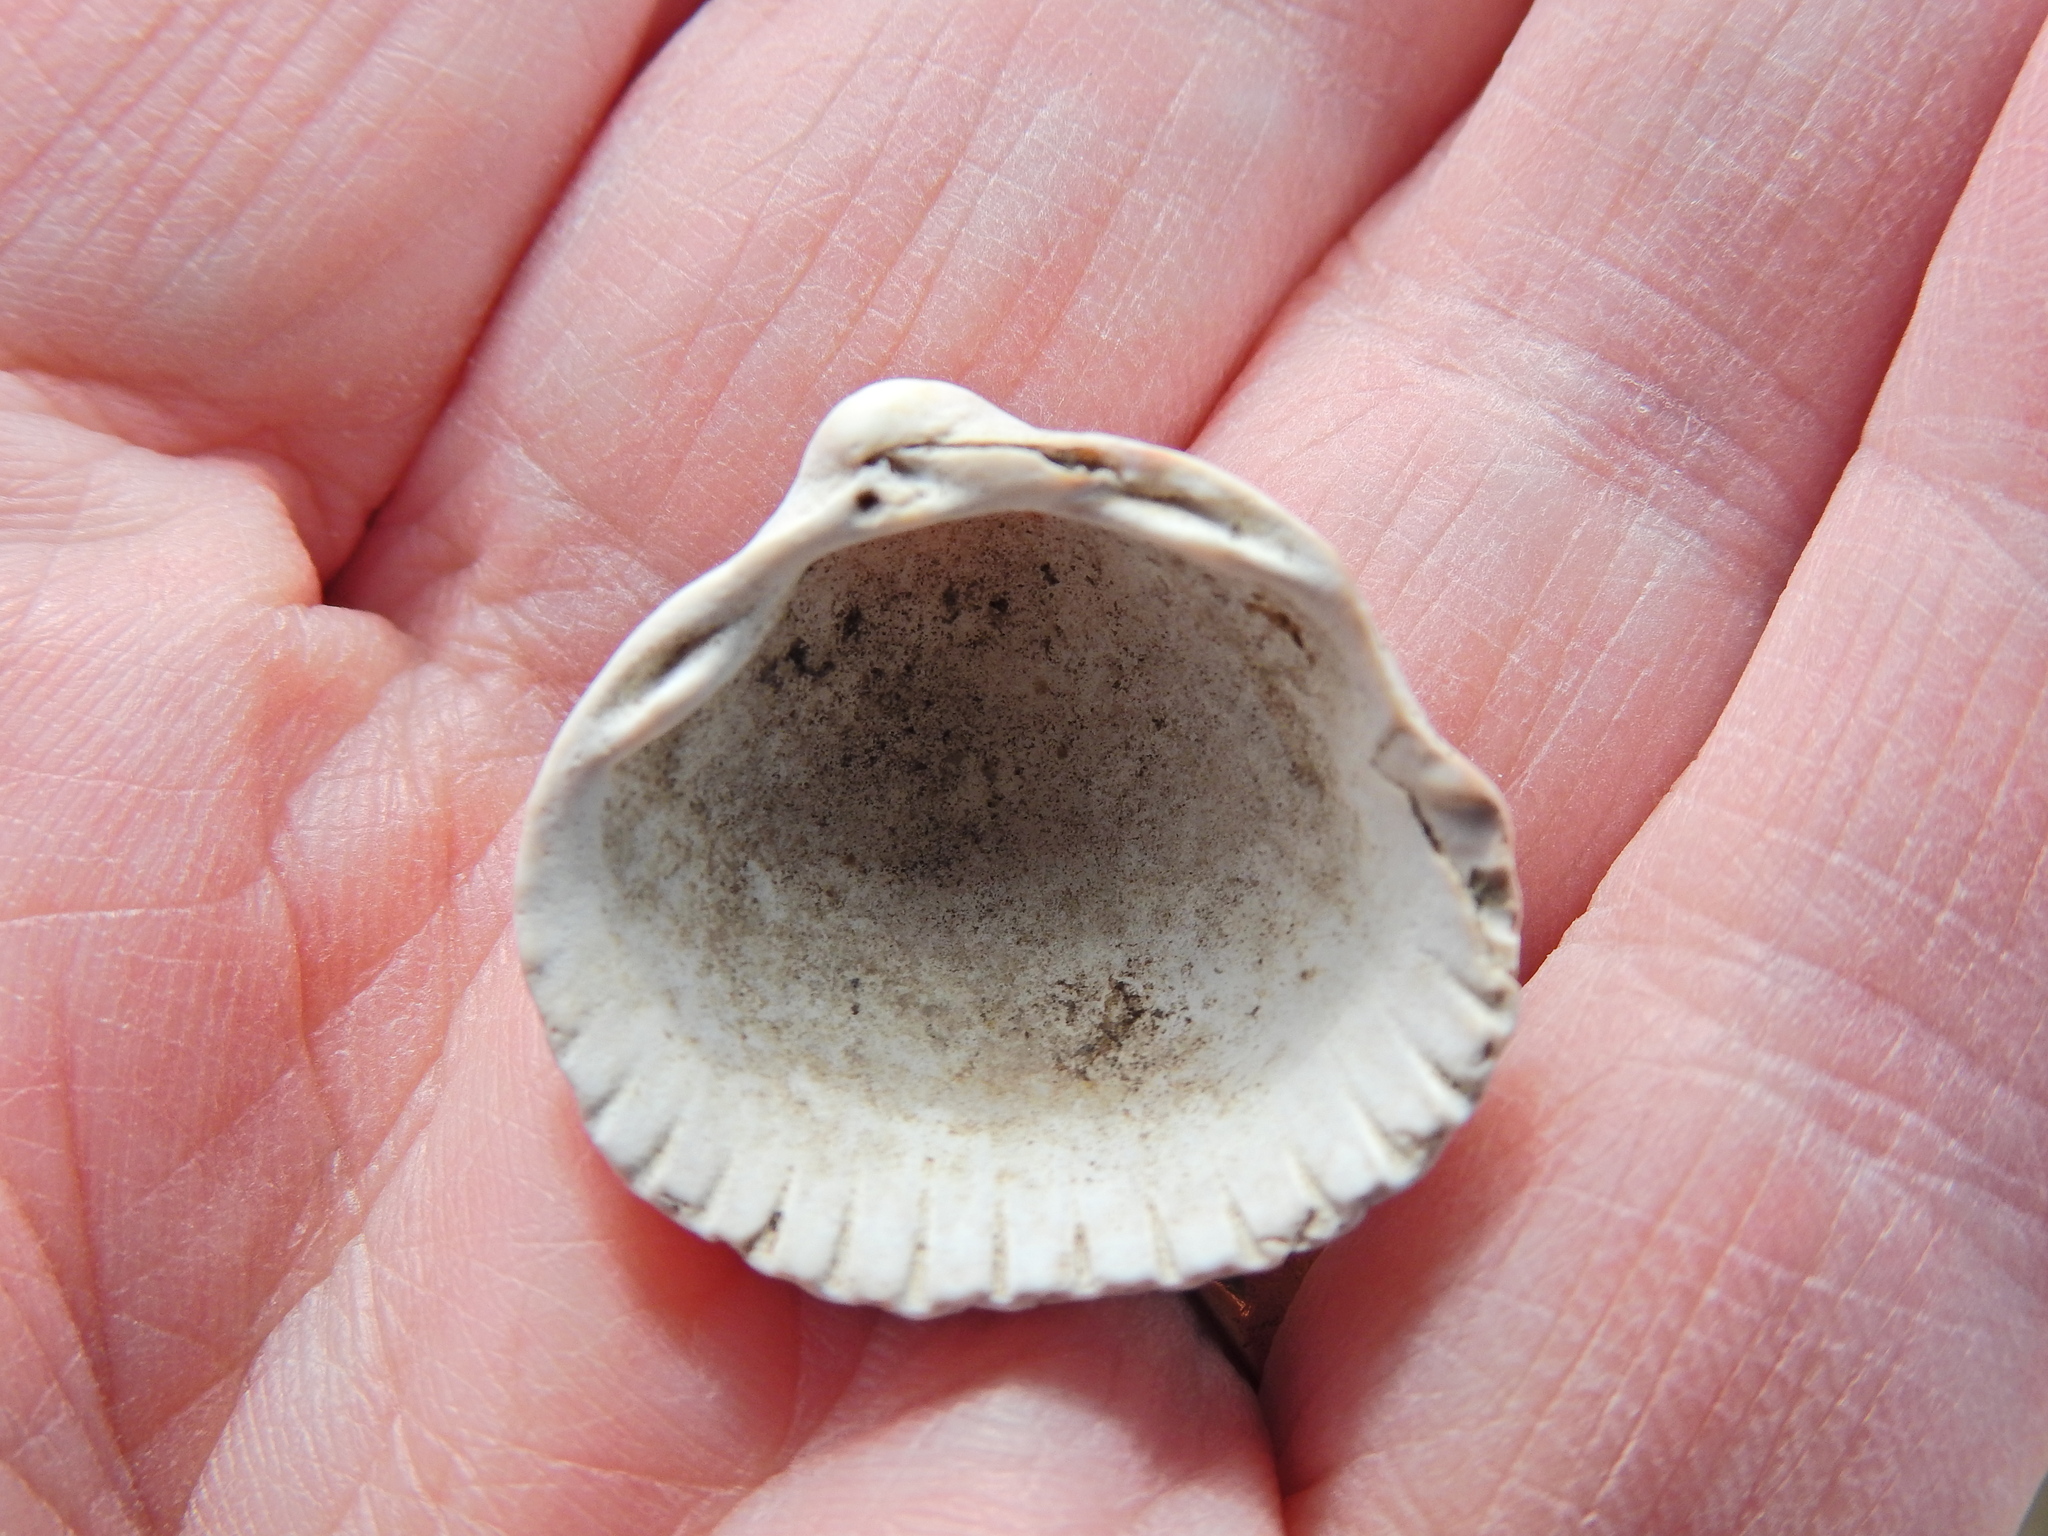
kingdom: Animalia
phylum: Mollusca
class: Bivalvia
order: Cardiida
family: Cardiidae
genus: Cerastoderma
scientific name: Cerastoderma edule
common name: Common cockle
